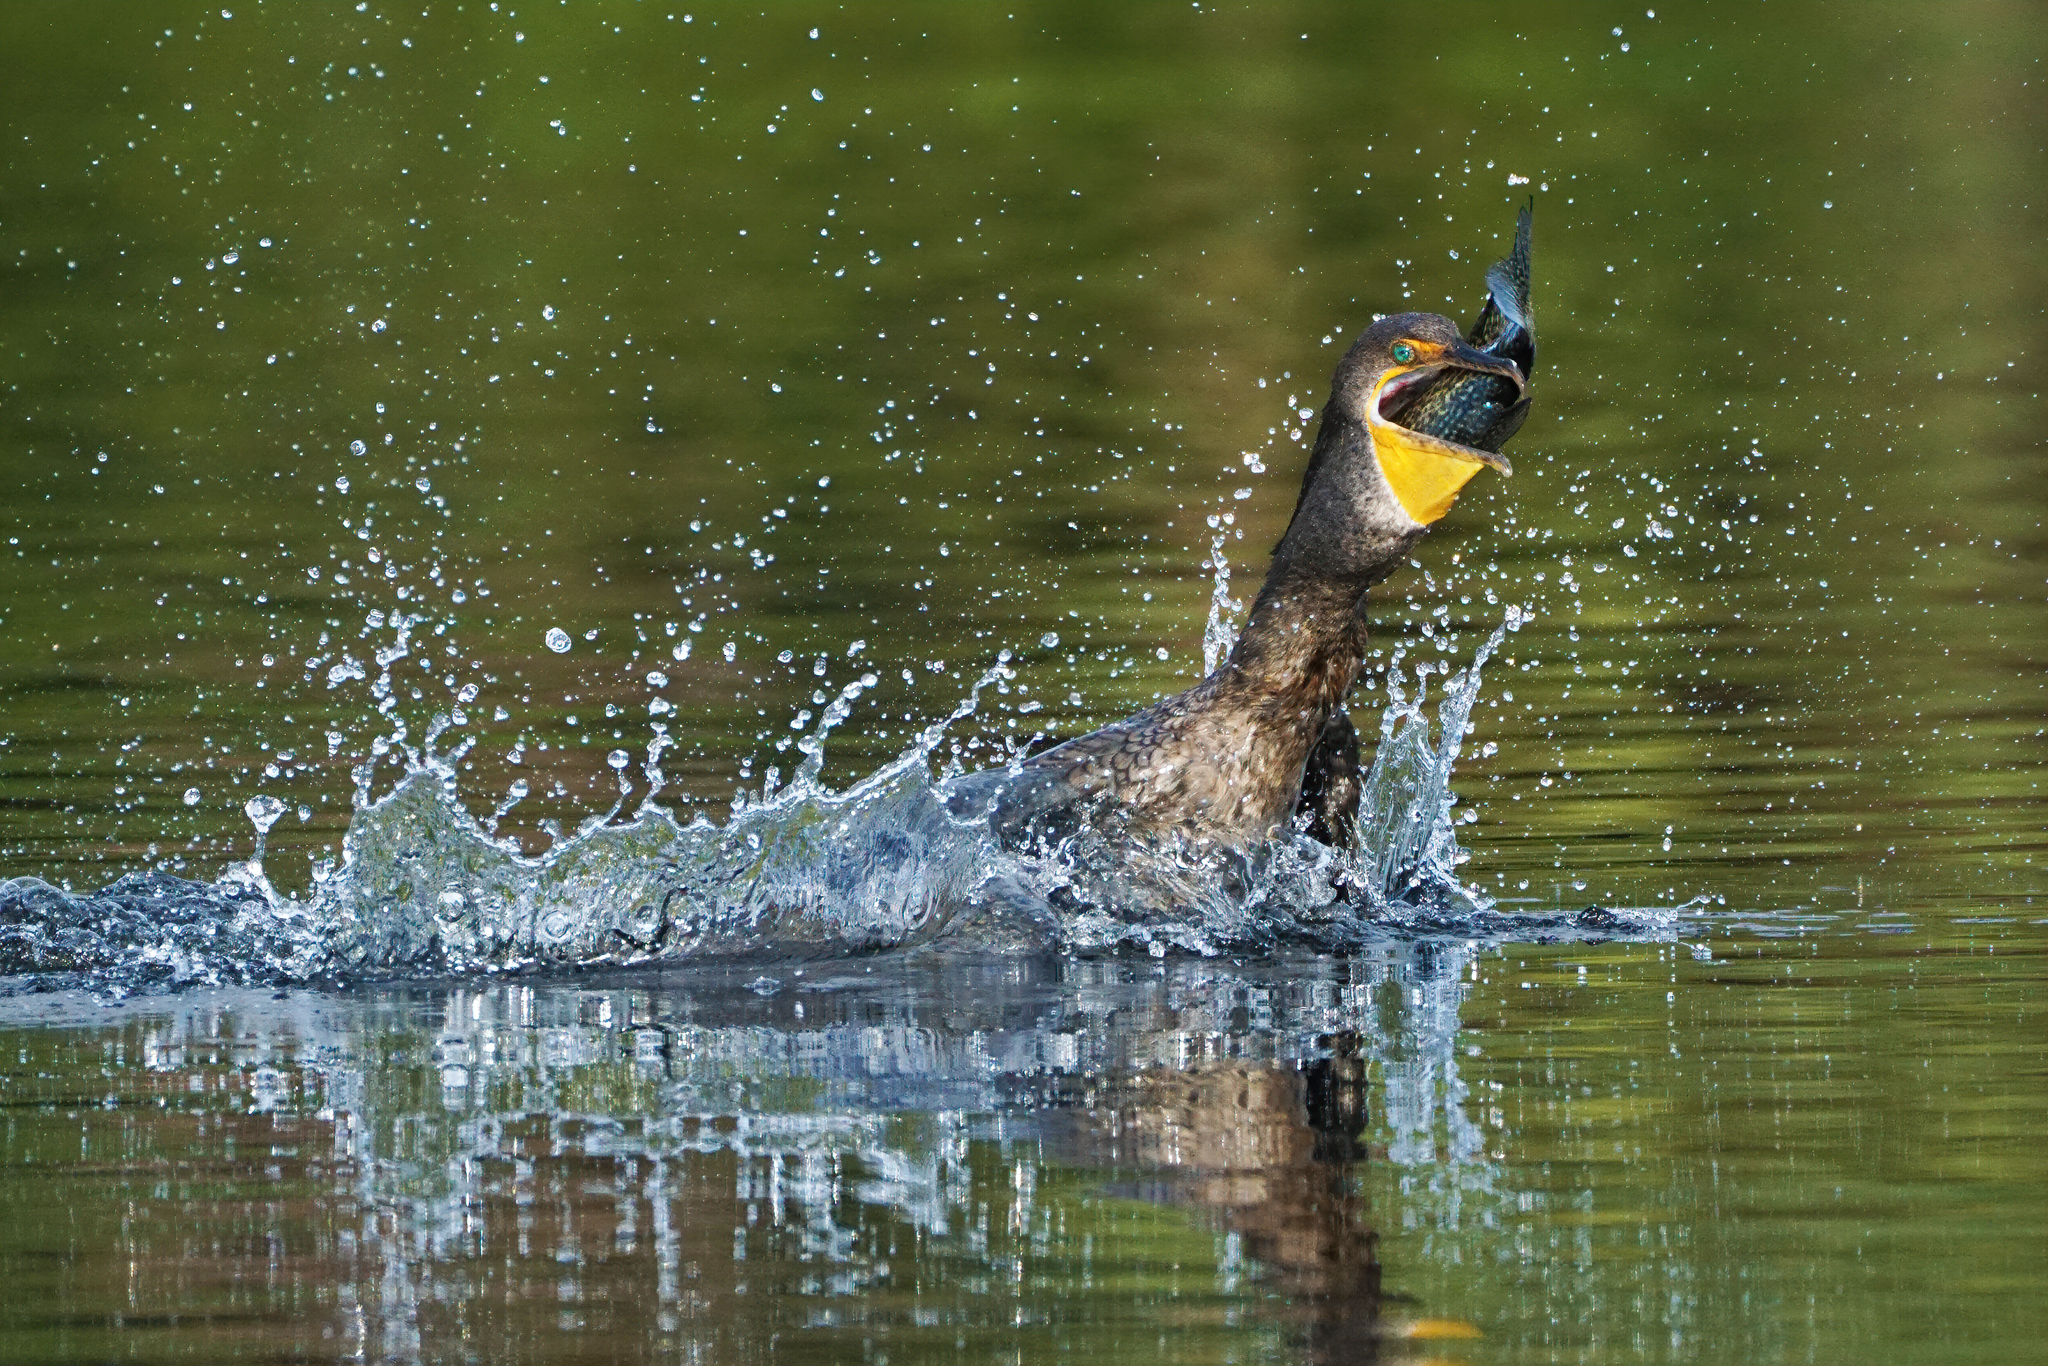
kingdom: Animalia
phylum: Chordata
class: Aves
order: Suliformes
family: Phalacrocoracidae
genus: Phalacrocorax
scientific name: Phalacrocorax auritus
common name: Double-crested cormorant
